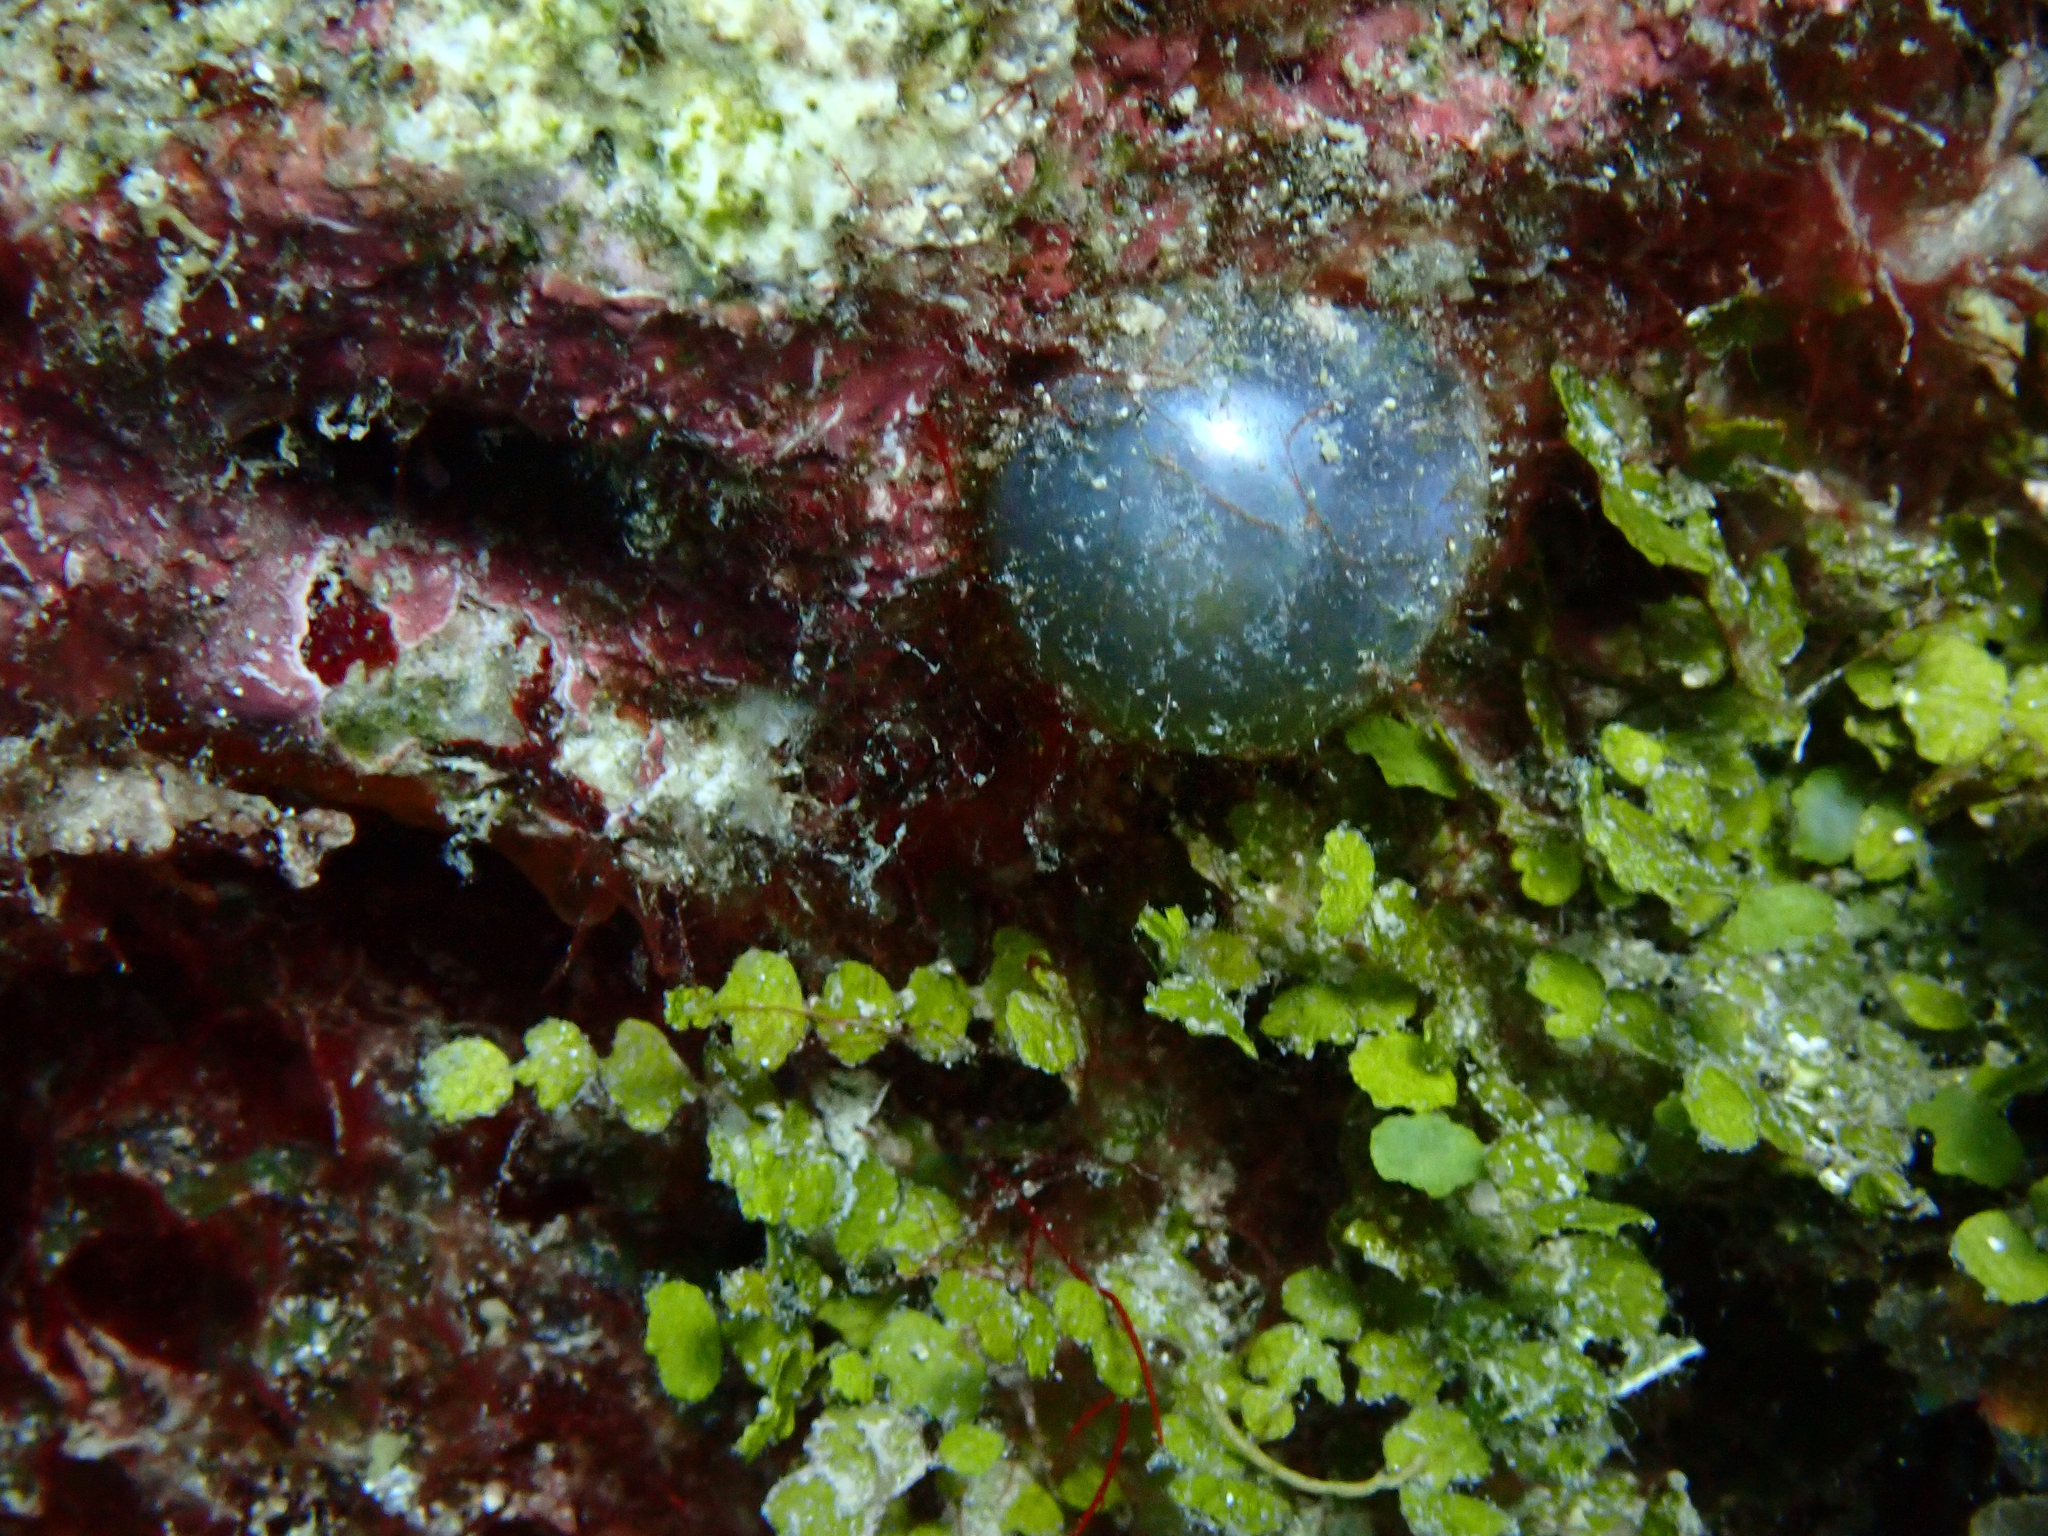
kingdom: Plantae
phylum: Chlorophyta
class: Ulvophyceae
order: Siphonocladales
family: Valoniaceae
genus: Valonia
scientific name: Valonia ventricosa
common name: Sea pearl
